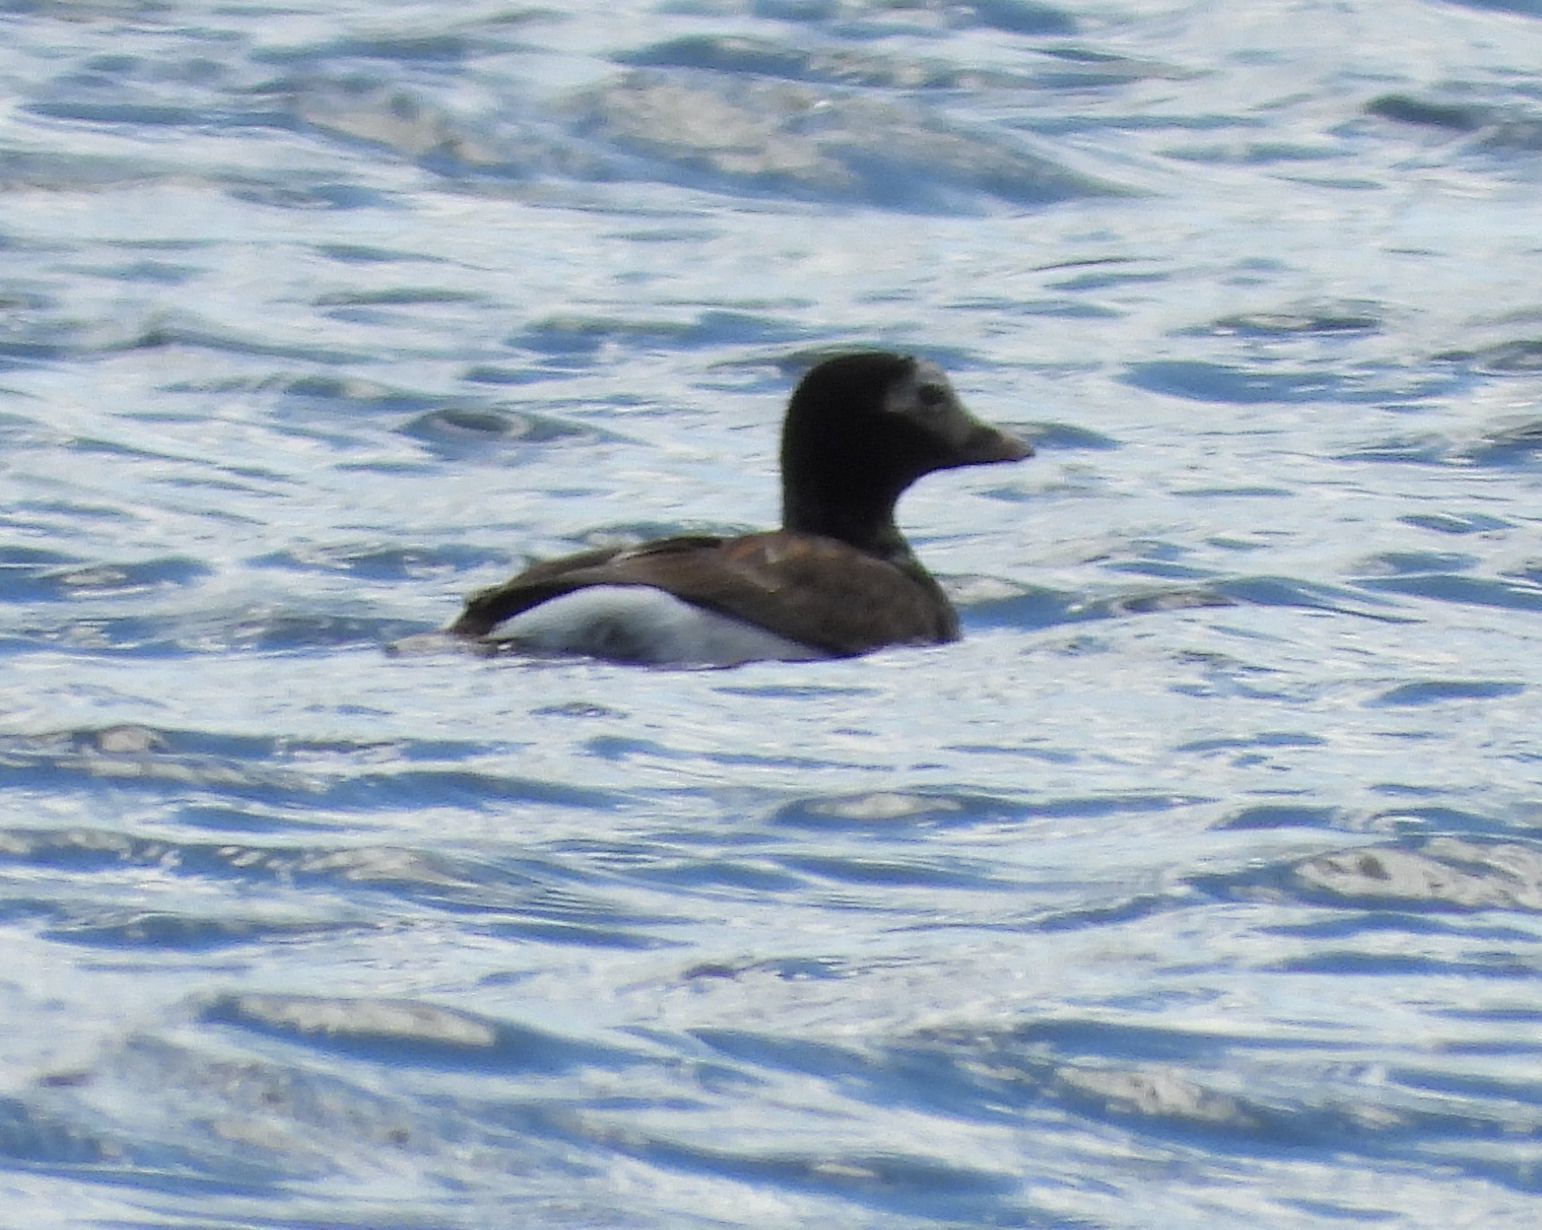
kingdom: Animalia
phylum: Chordata
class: Aves
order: Anseriformes
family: Anatidae
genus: Clangula
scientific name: Clangula hyemalis
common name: Long-tailed duck
